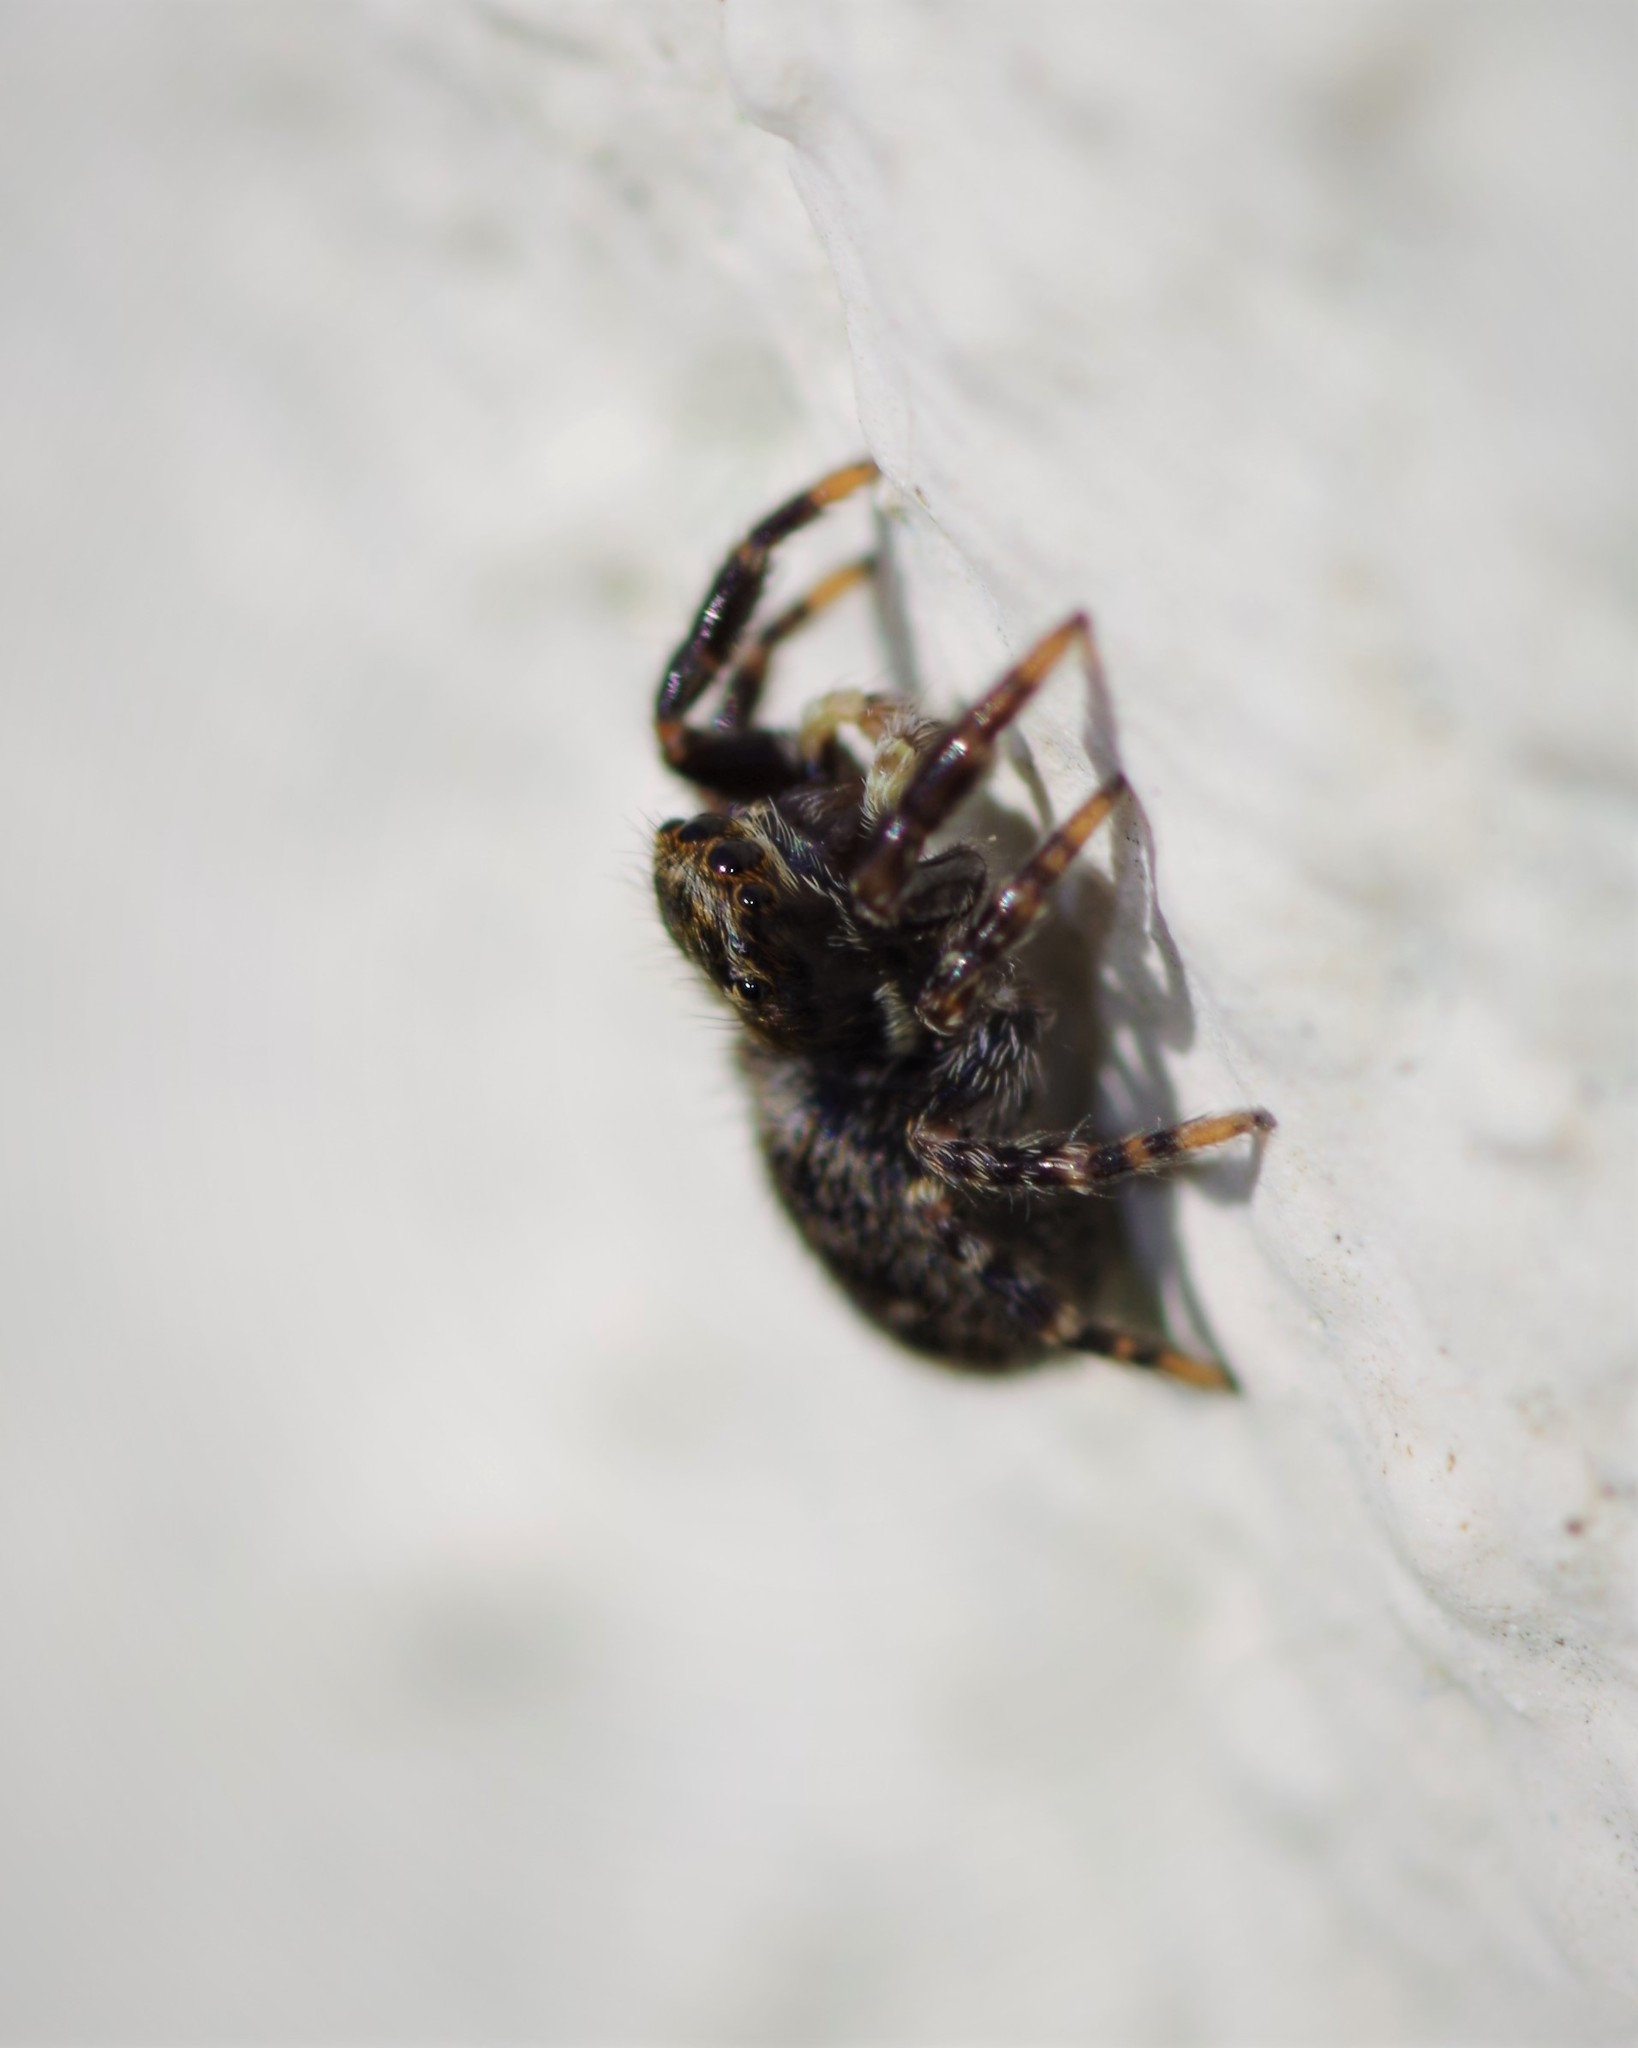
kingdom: Animalia
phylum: Arthropoda
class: Arachnida
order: Araneae
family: Salticidae
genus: Pseudeuophrys
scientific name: Pseudeuophrys erratica
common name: Jumping spider
